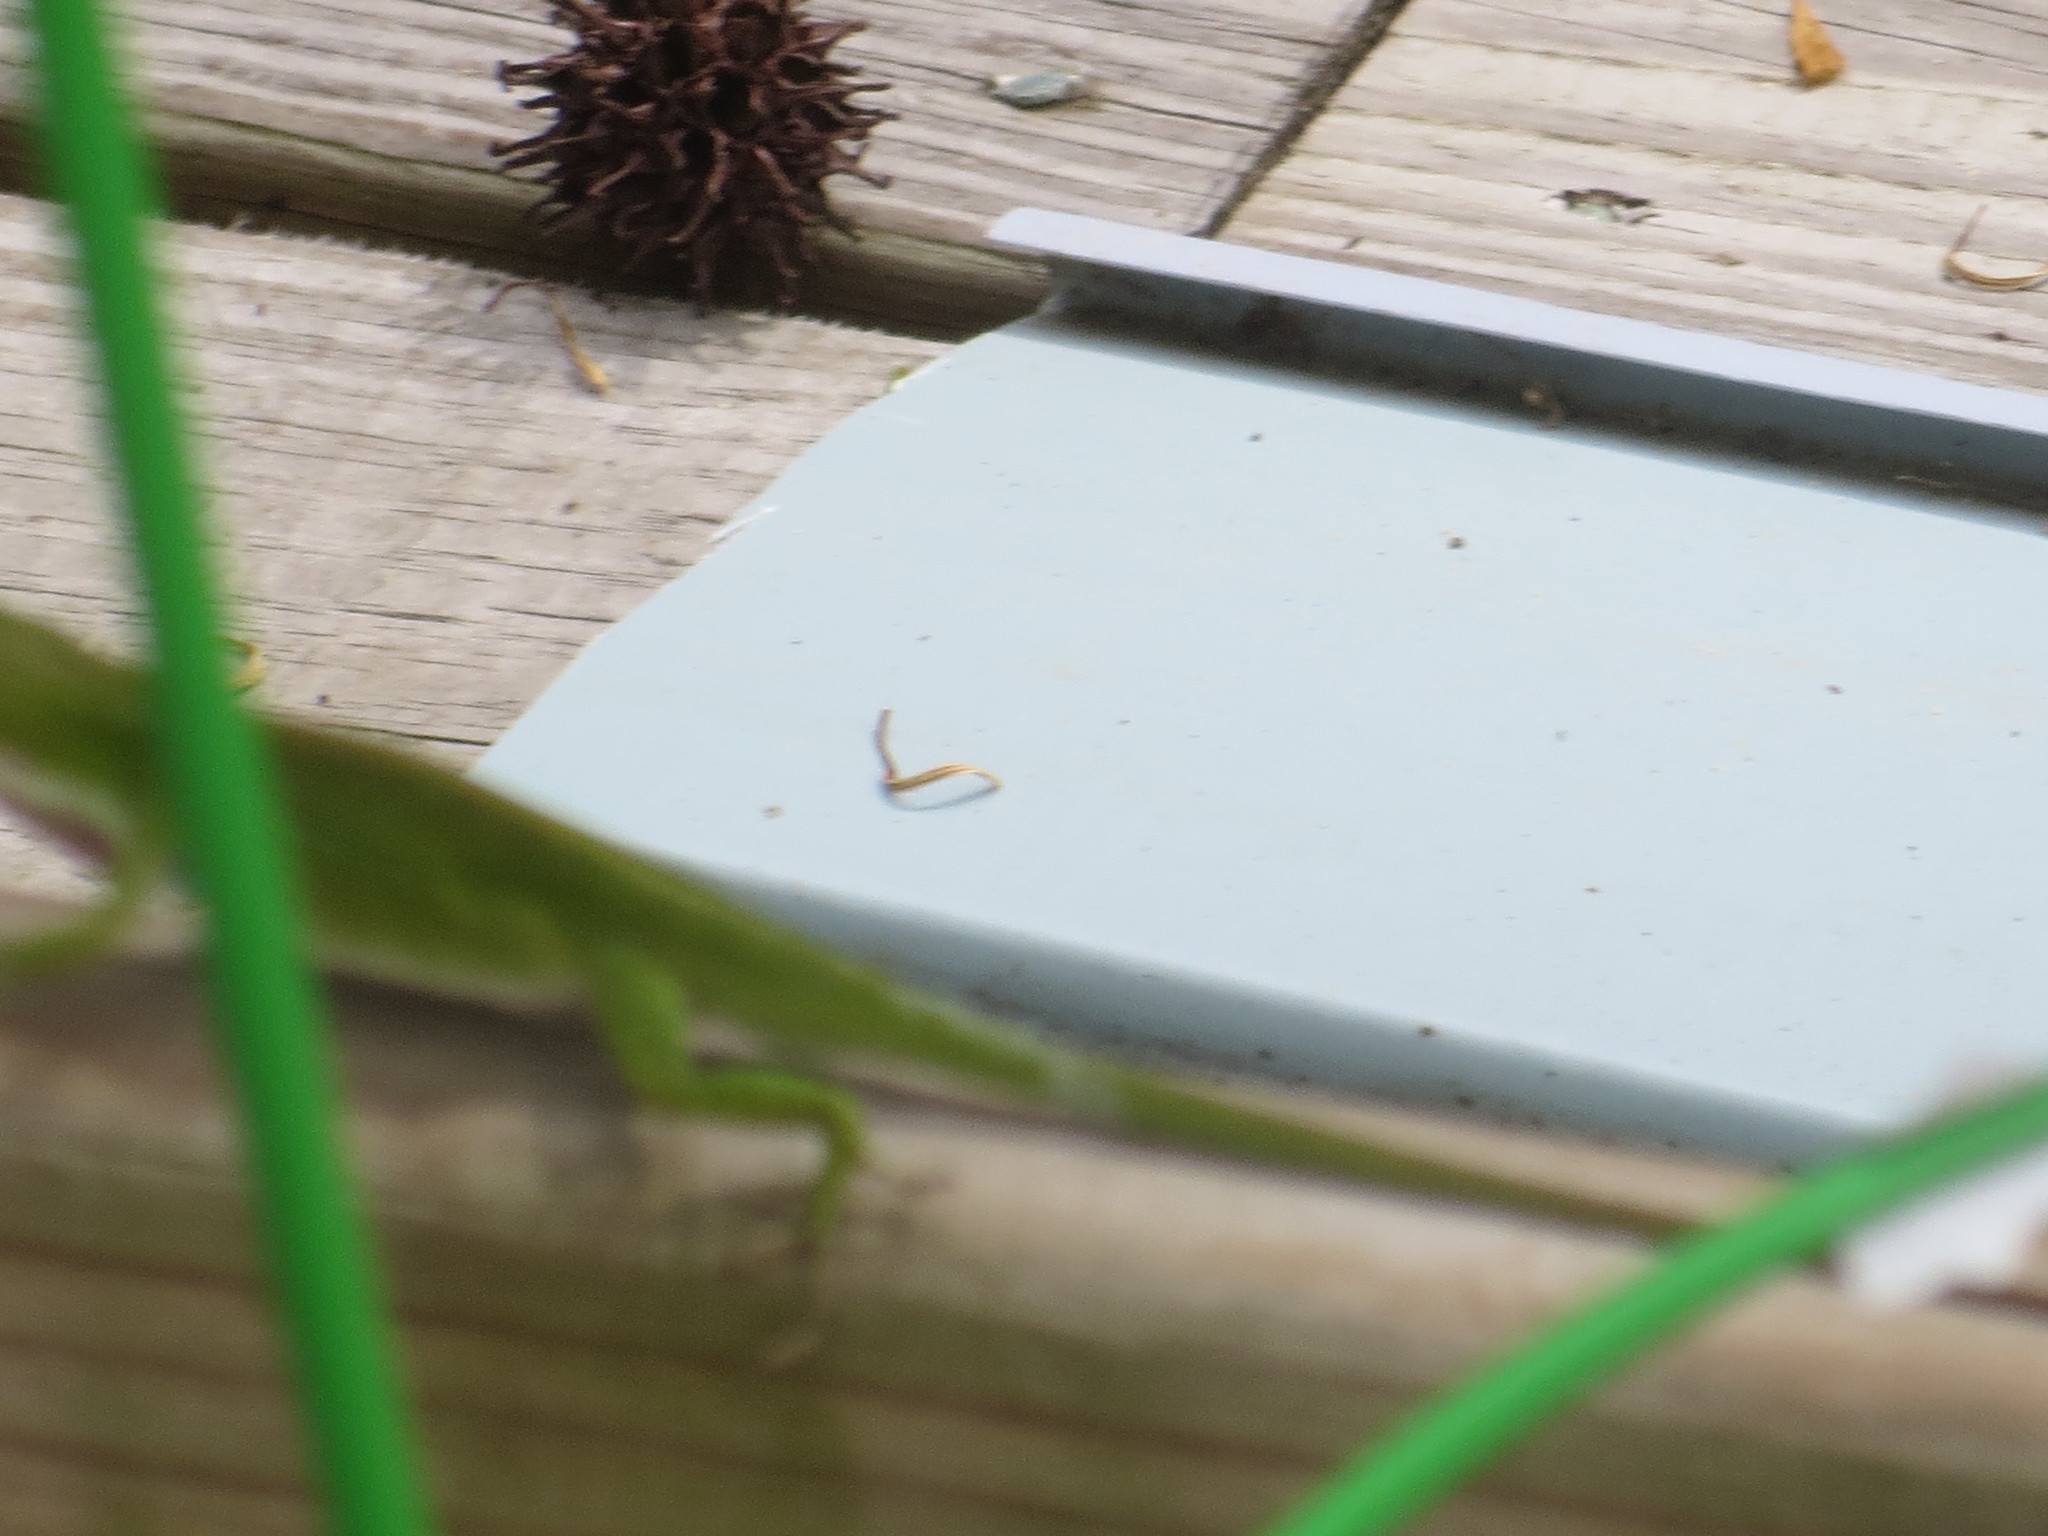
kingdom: Animalia
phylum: Chordata
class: Squamata
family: Dactyloidae
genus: Anolis
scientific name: Anolis carolinensis
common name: Green anole
